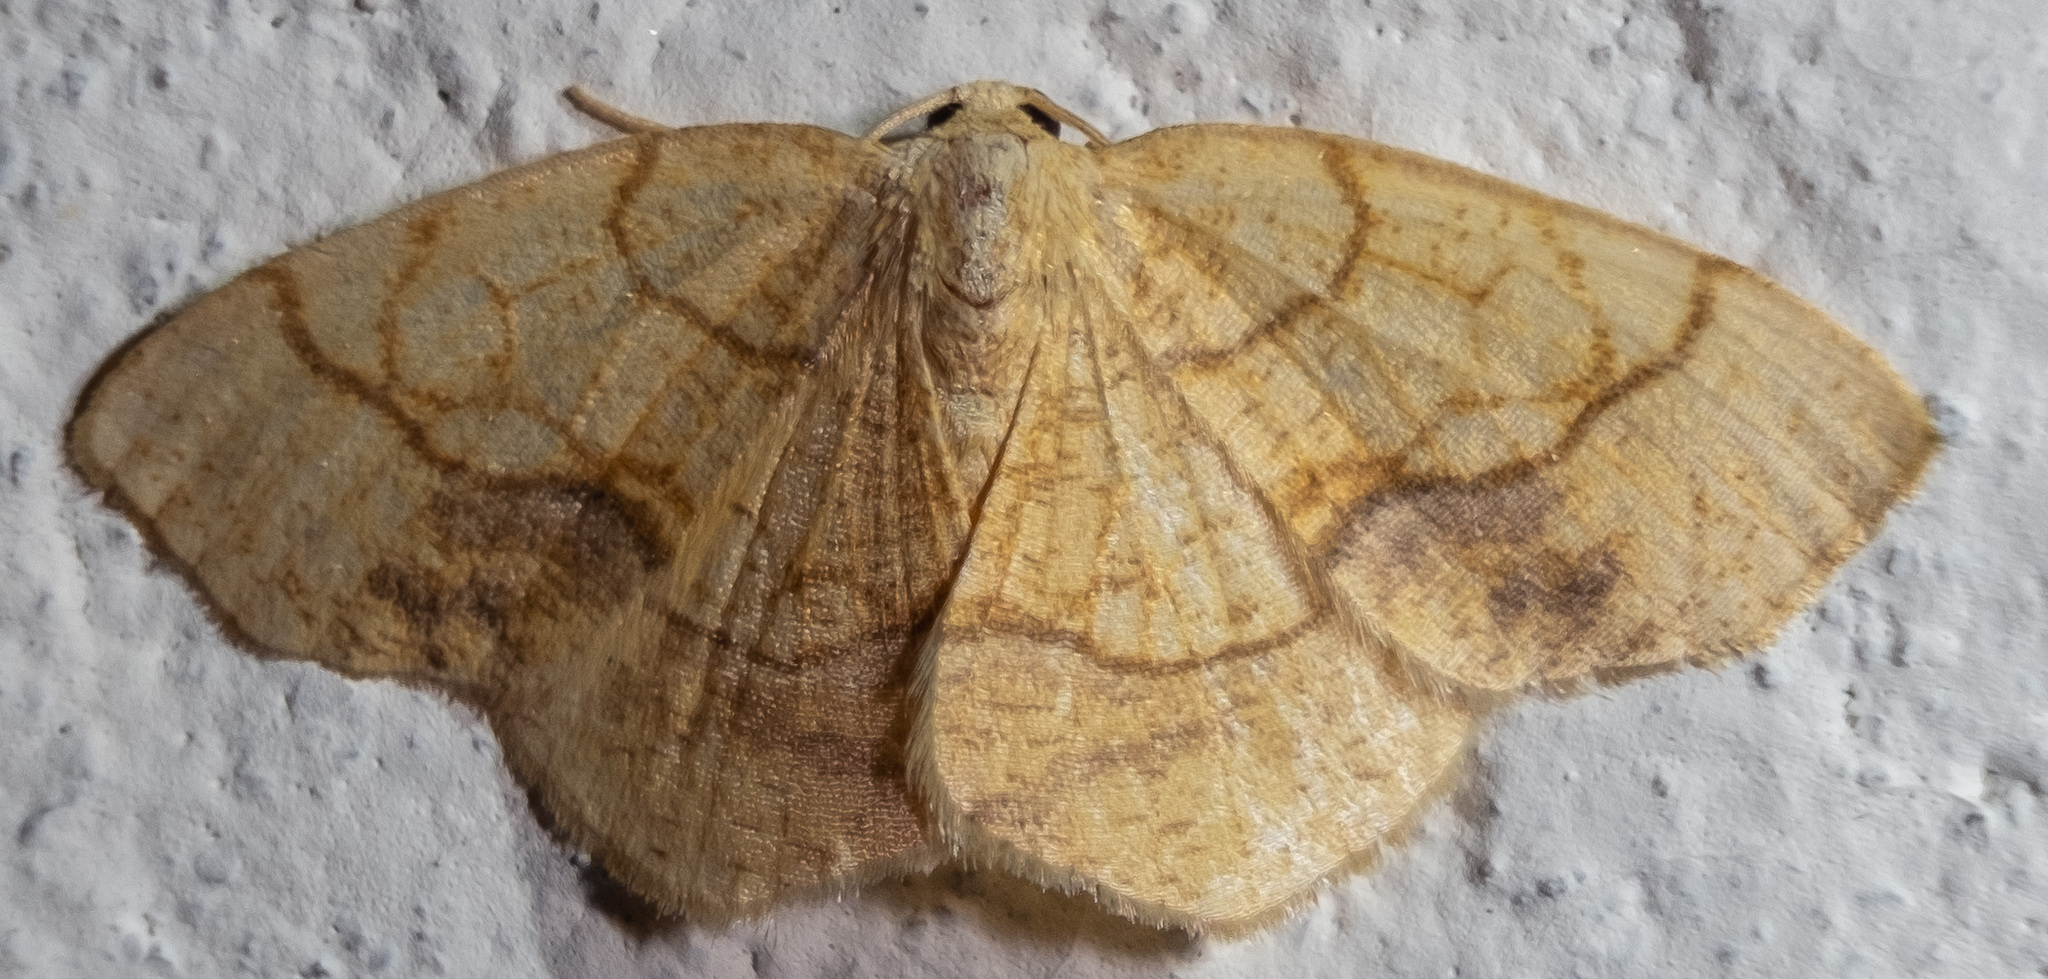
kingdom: Animalia
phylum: Arthropoda
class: Insecta
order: Lepidoptera
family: Geometridae
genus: Nematocampa
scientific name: Nematocampa resistaria
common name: Horned spanworm moth
